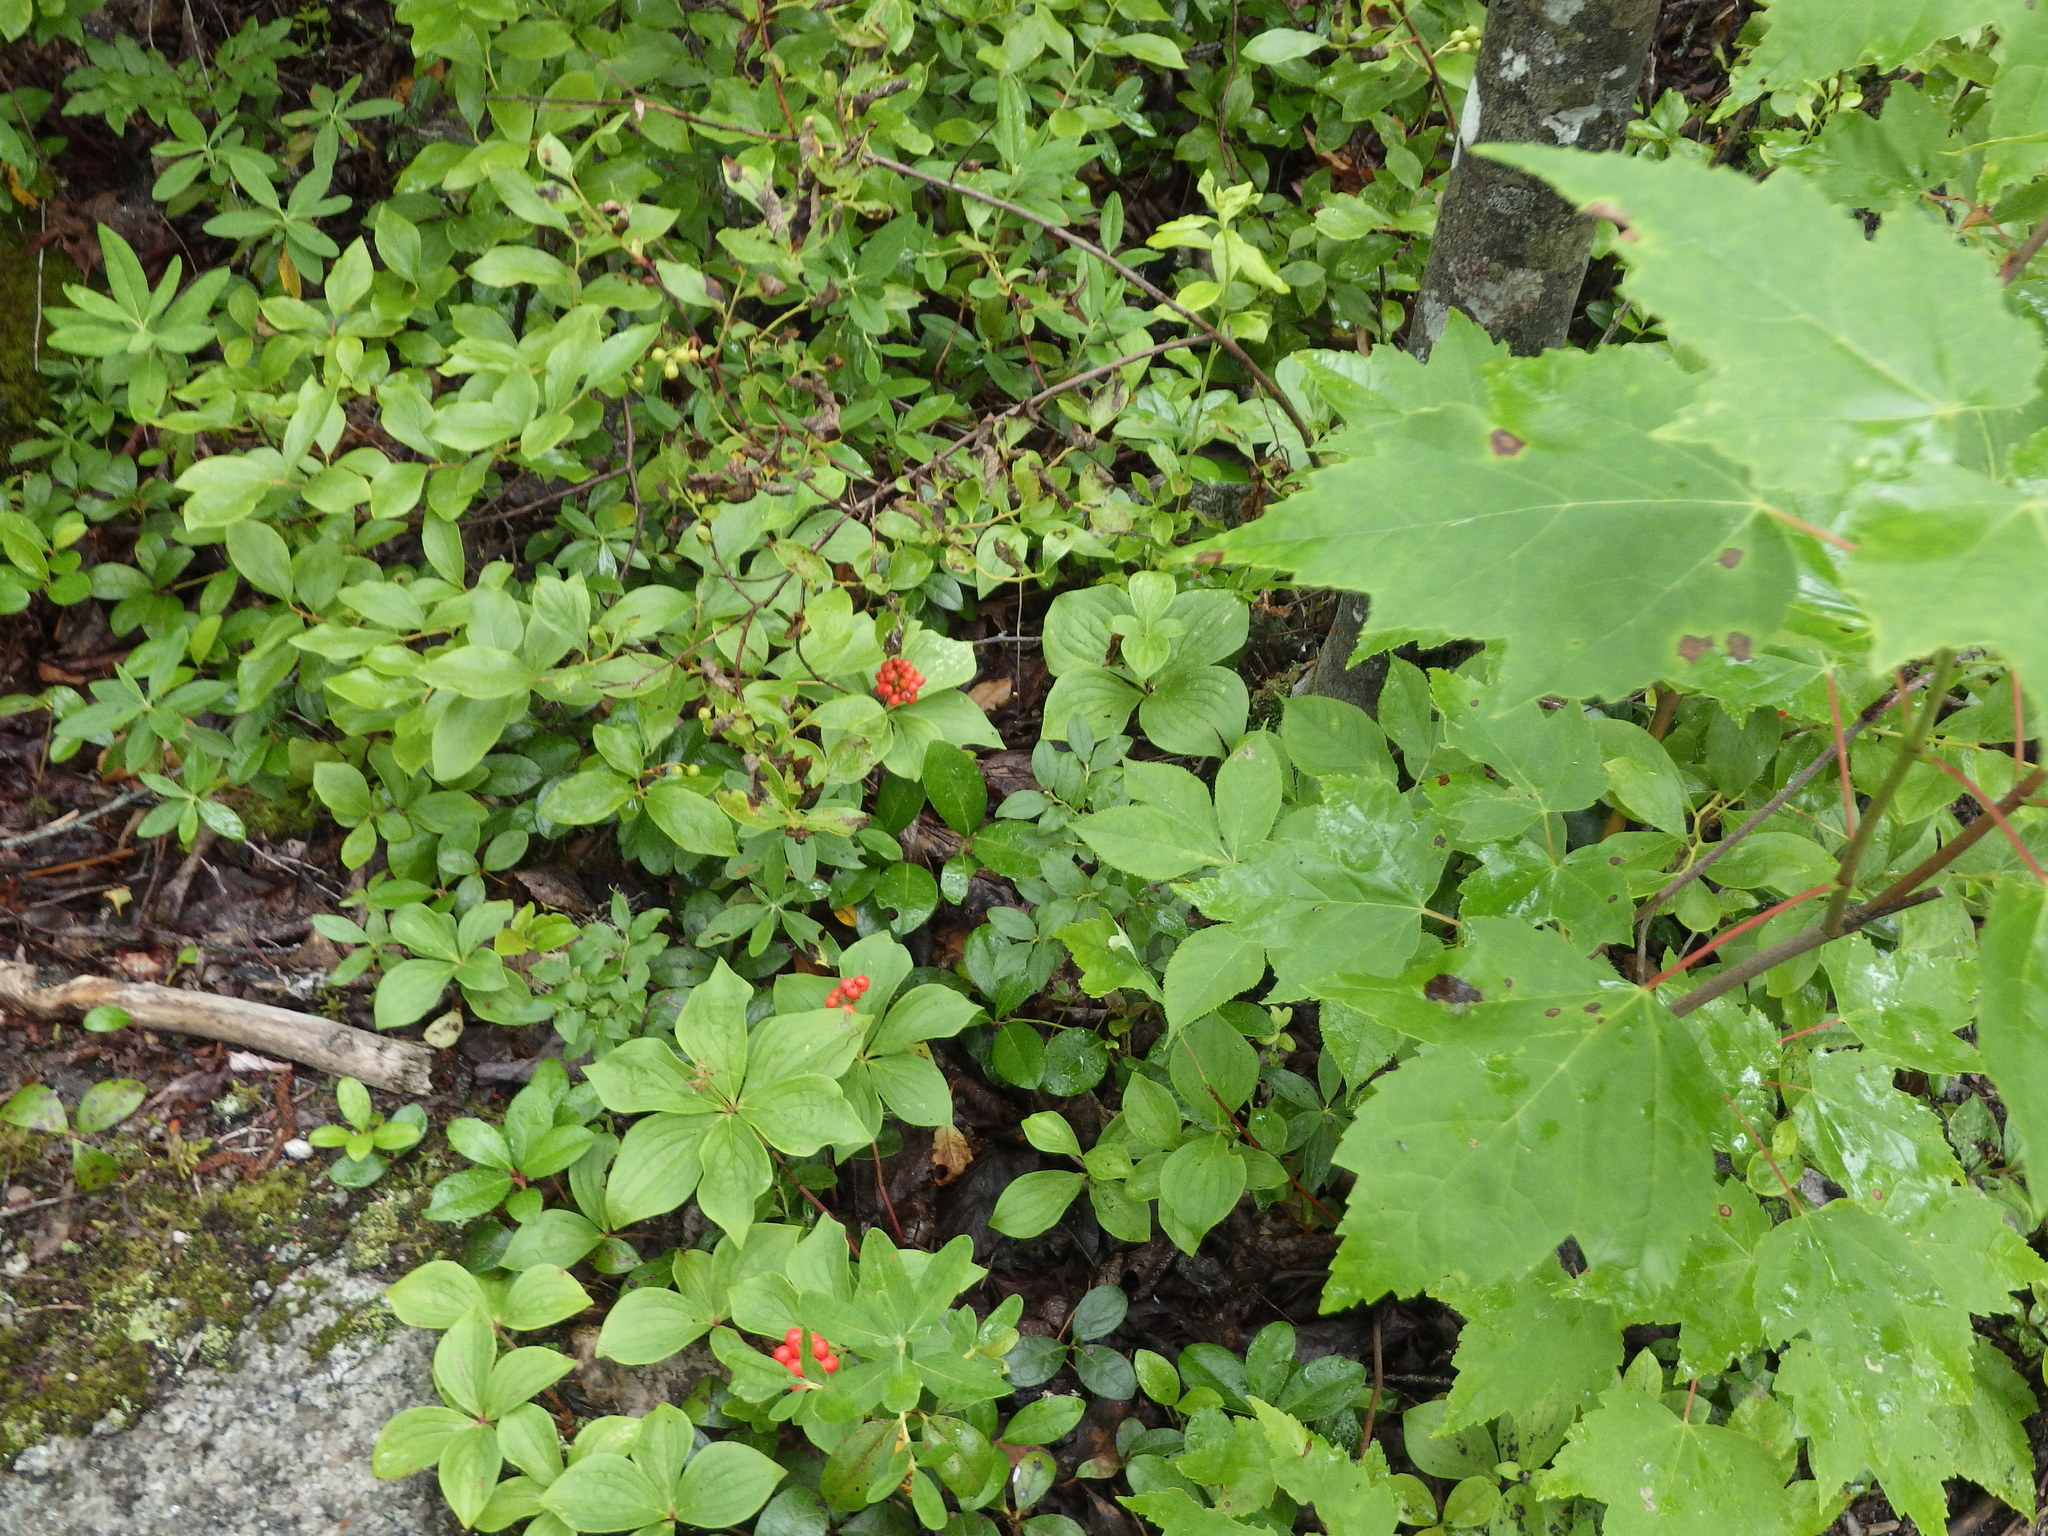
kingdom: Plantae
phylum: Tracheophyta
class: Magnoliopsida
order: Cornales
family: Cornaceae
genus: Cornus
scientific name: Cornus canadensis
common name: Creeping dogwood
